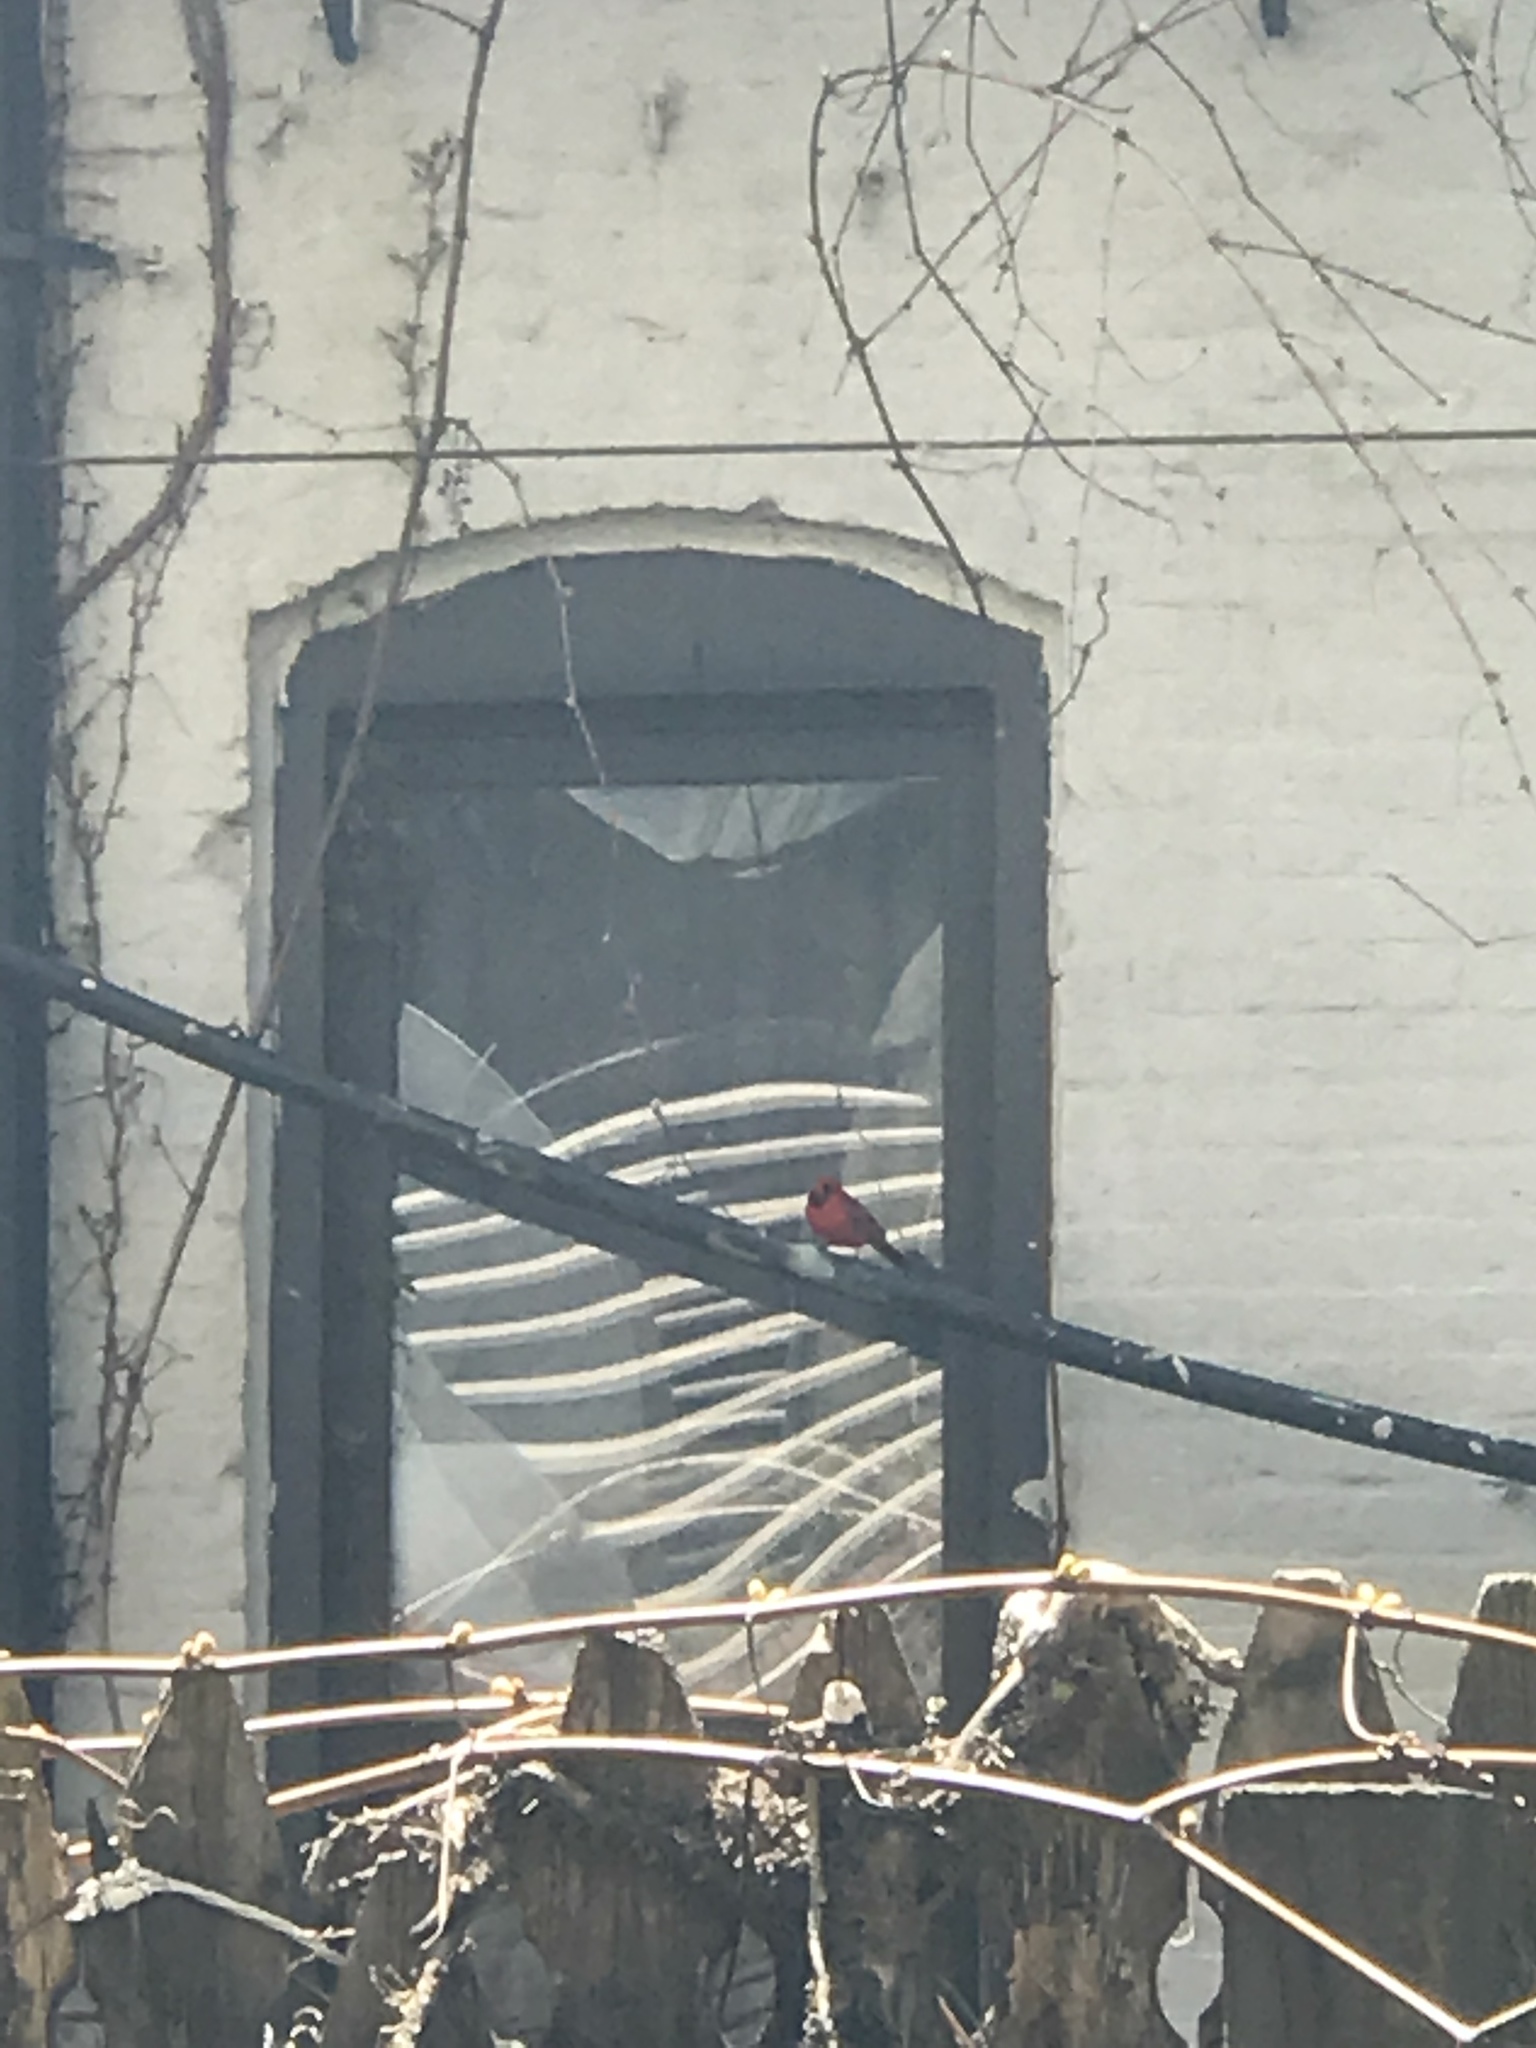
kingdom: Animalia
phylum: Chordata
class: Aves
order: Passeriformes
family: Cardinalidae
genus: Cardinalis
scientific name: Cardinalis cardinalis
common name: Northern cardinal
